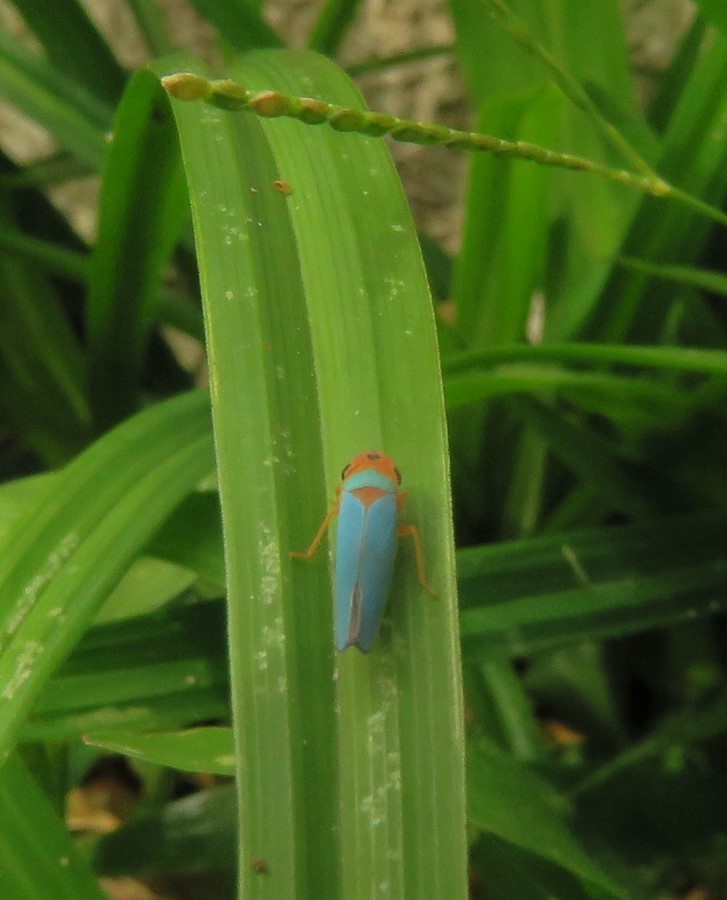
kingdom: Animalia
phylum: Arthropoda
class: Insecta
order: Hemiptera
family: Cicadellidae
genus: Macunolla
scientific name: Macunolla ventralis
